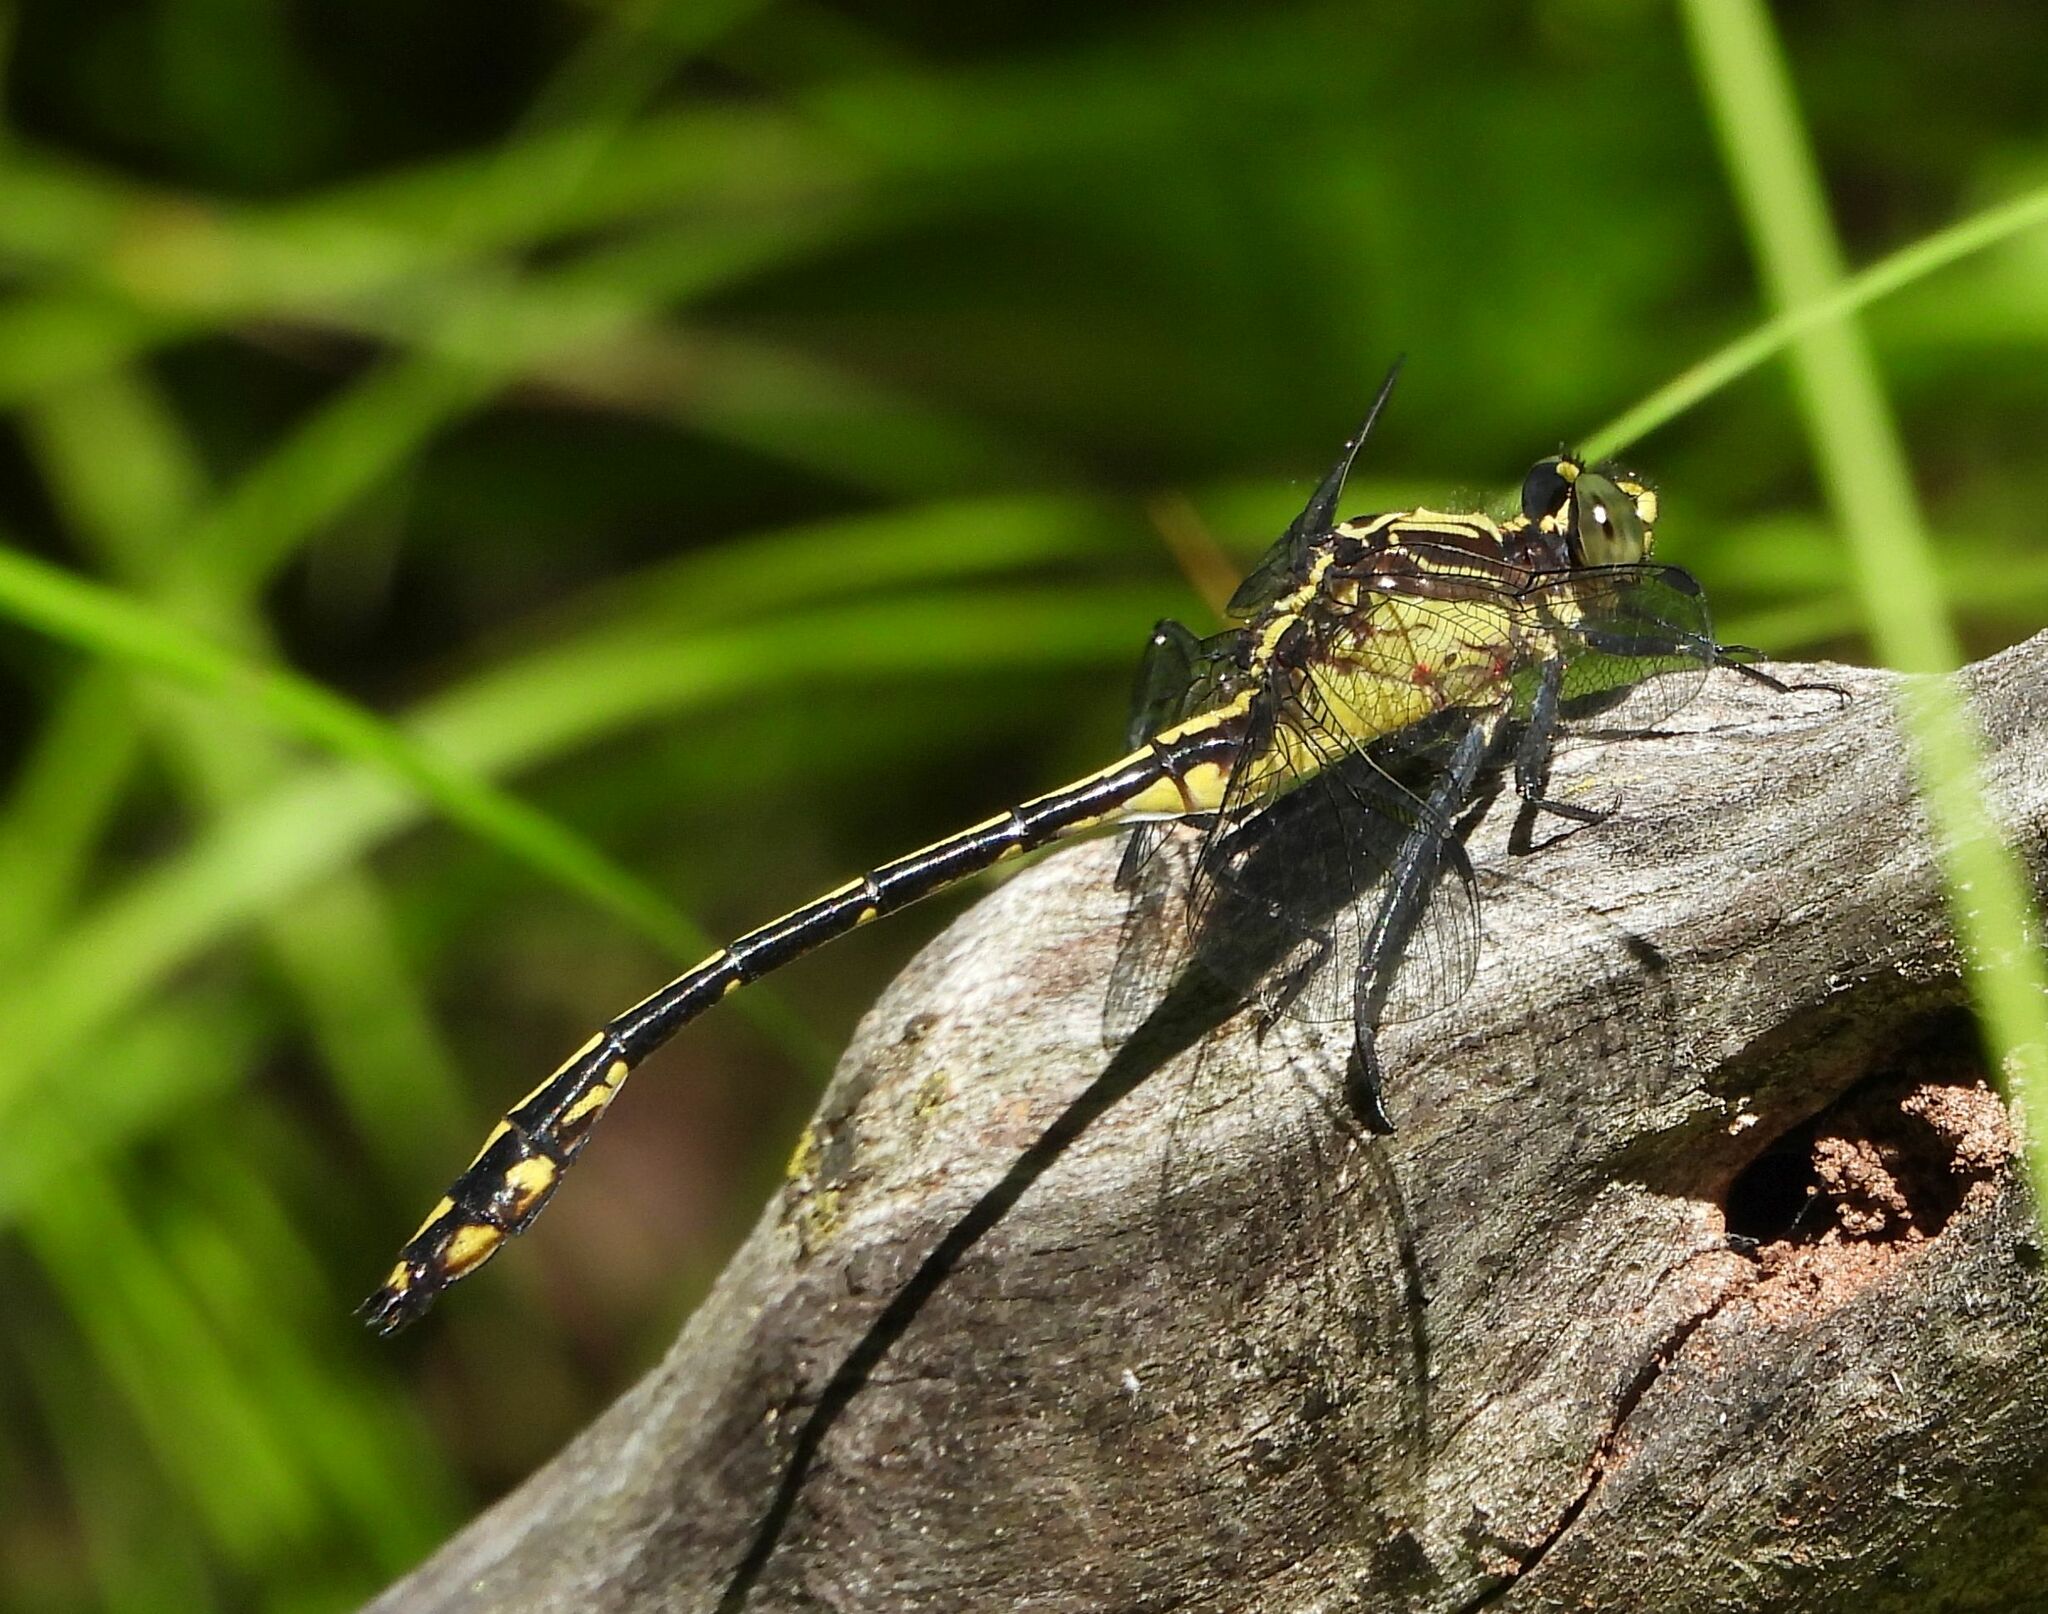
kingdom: Animalia
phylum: Arthropoda
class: Insecta
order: Odonata
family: Gomphidae
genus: Dromogomphus
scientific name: Dromogomphus spinosus
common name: Black-shouldered spinyleg
